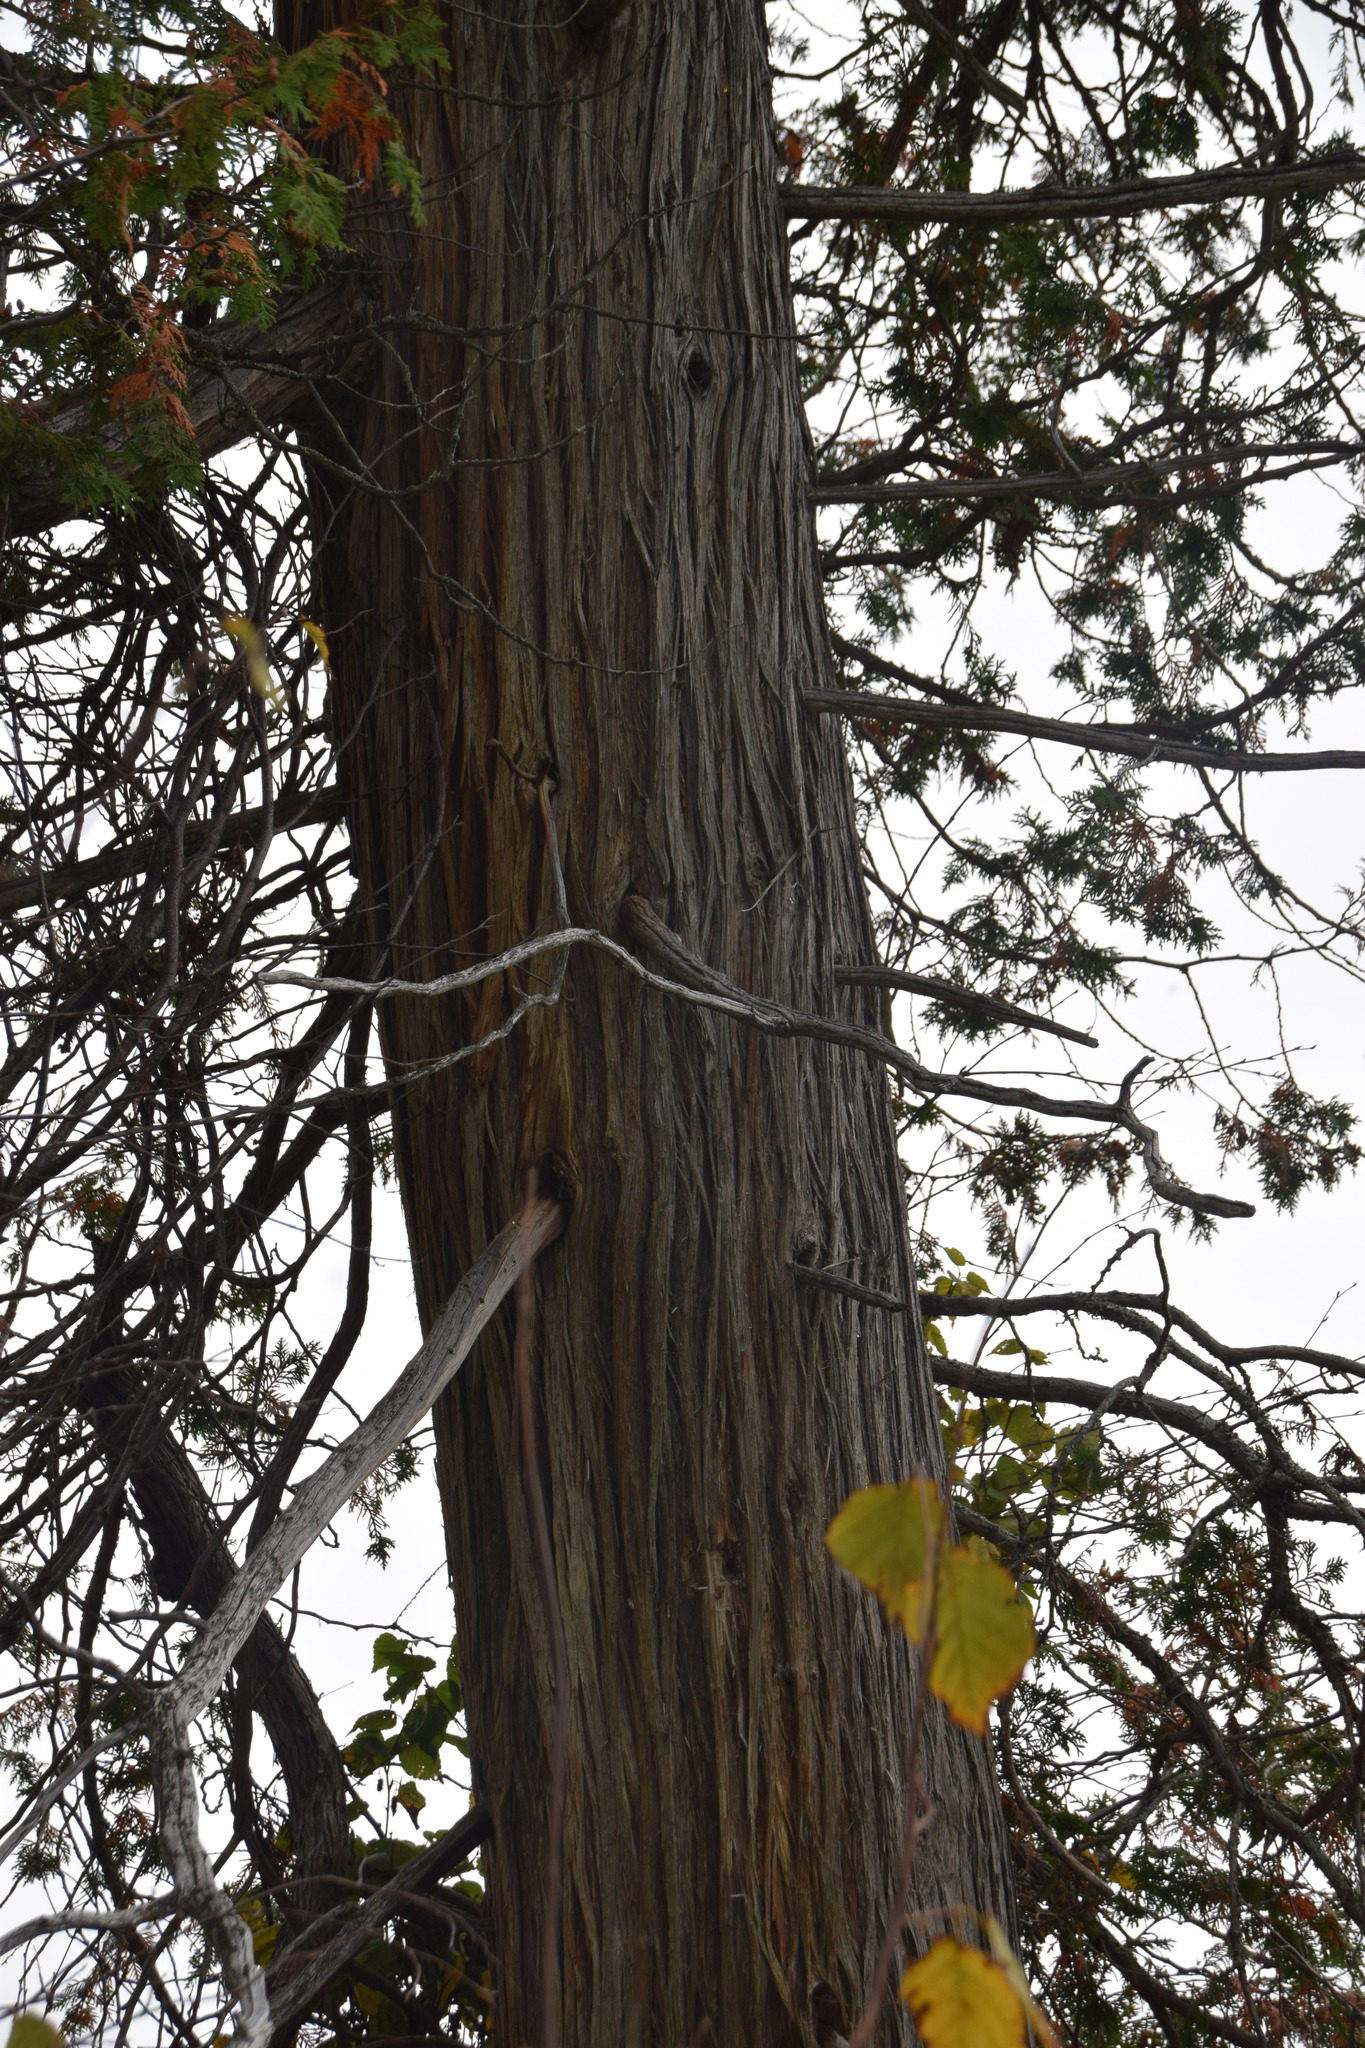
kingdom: Plantae
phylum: Tracheophyta
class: Pinopsida
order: Pinales
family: Cupressaceae
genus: Thuja
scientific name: Thuja occidentalis
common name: Northern white-cedar
